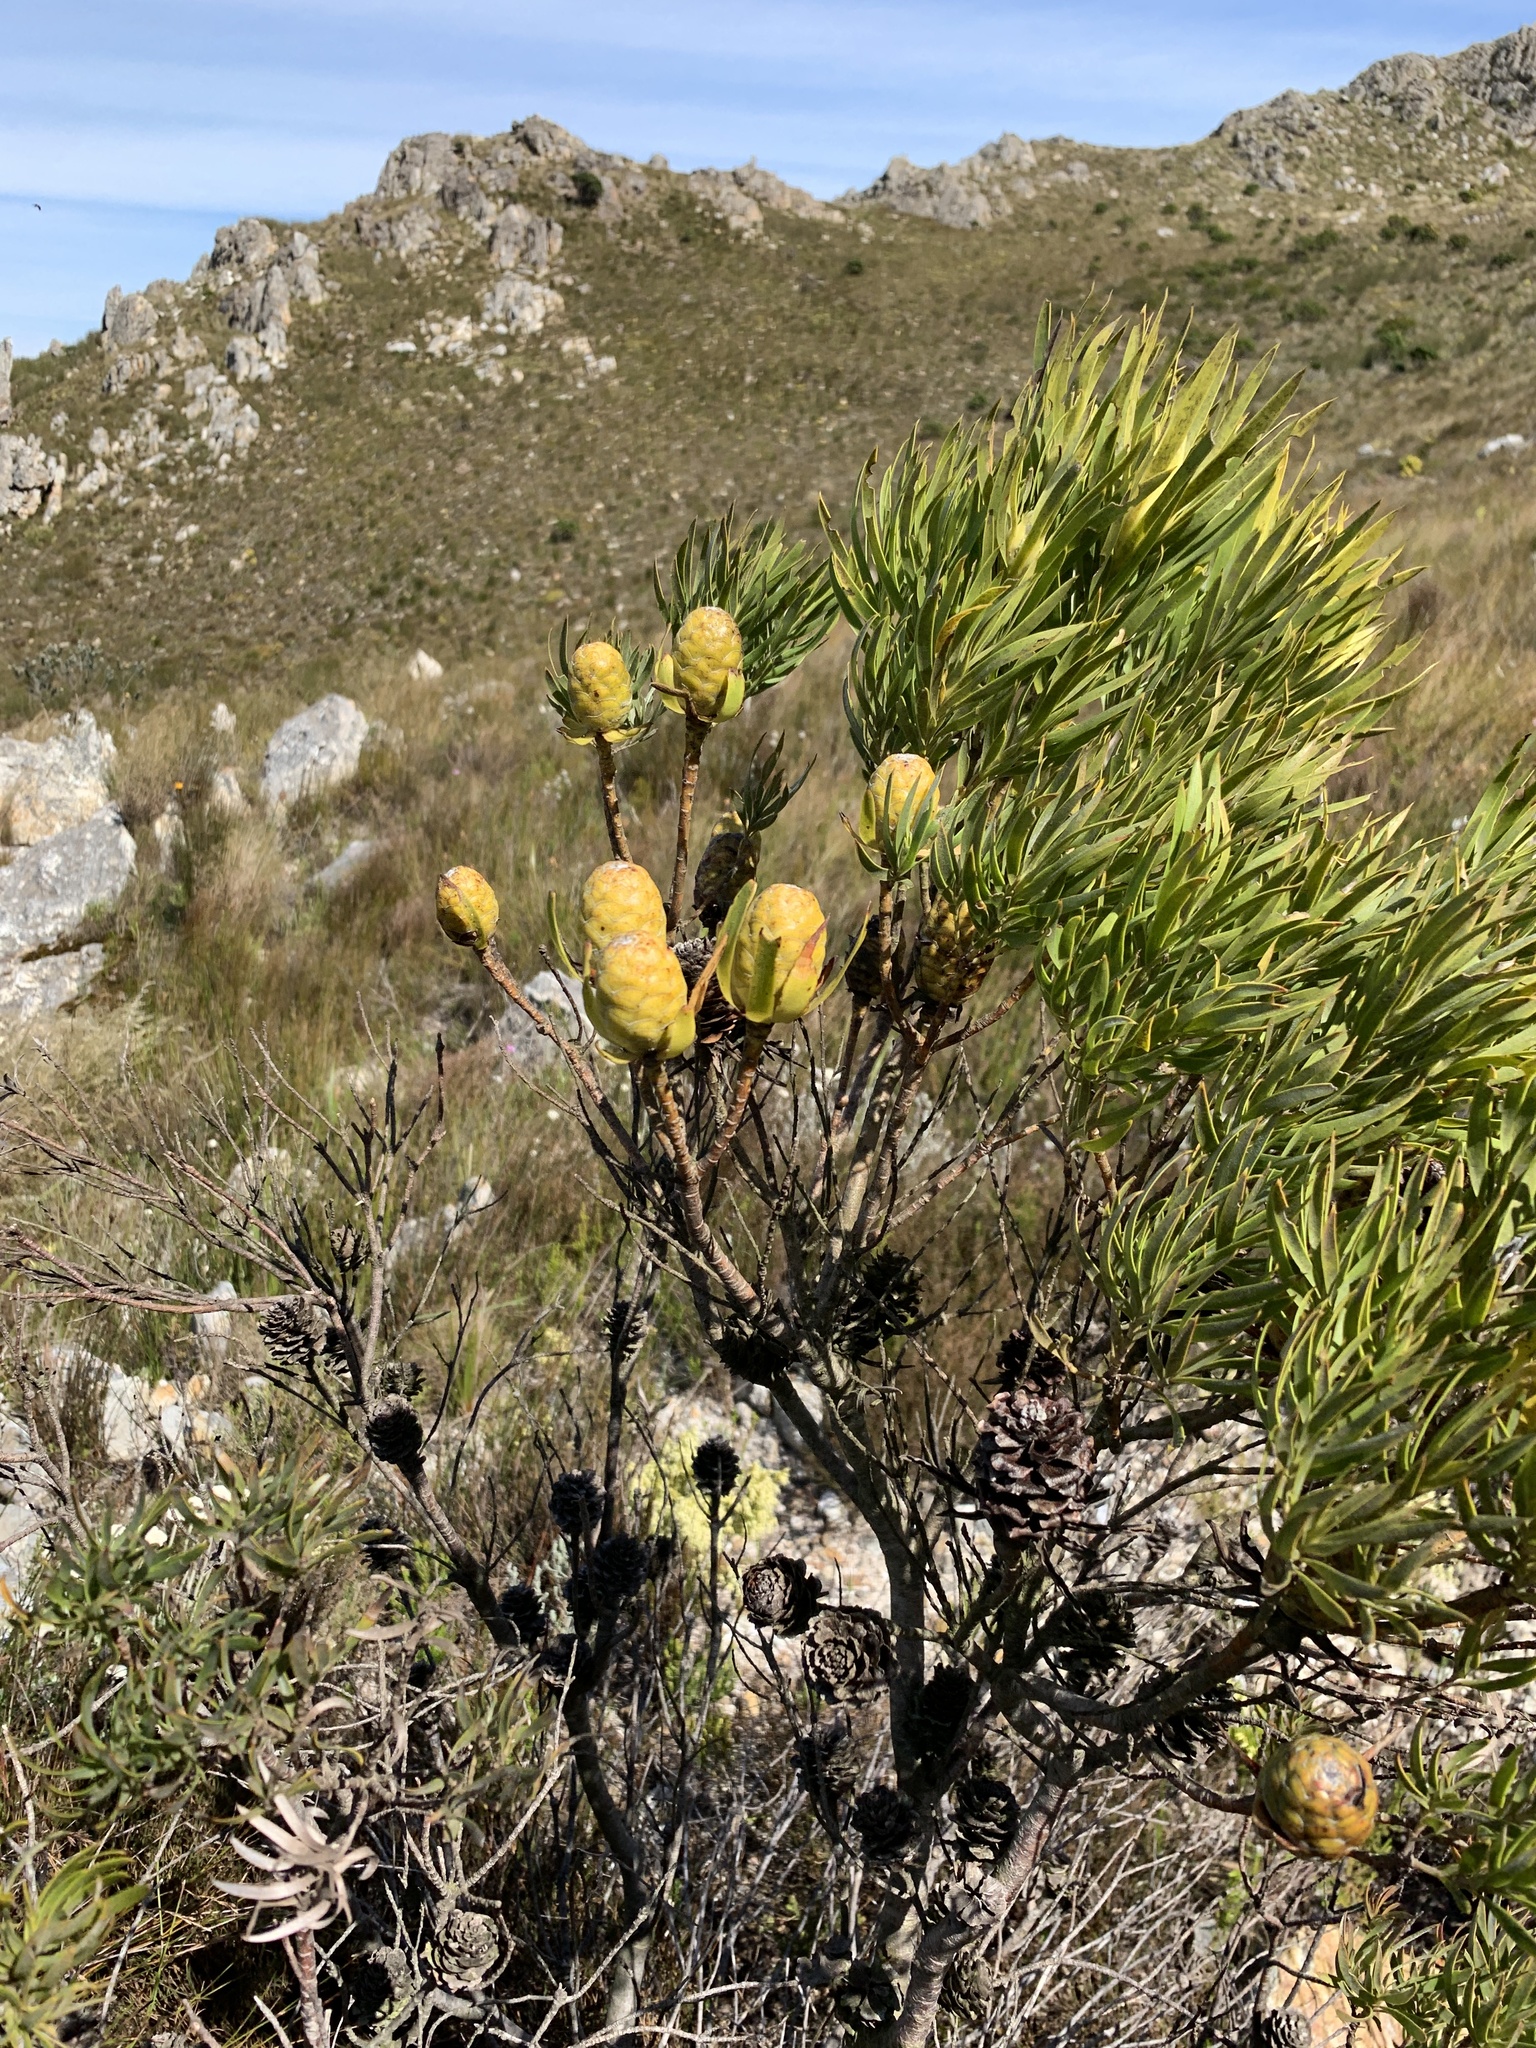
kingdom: Plantae
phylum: Tracheophyta
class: Magnoliopsida
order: Proteales
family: Proteaceae
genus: Leucadendron
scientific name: Leucadendron xanthoconus
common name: Sickle-leaf conebush
